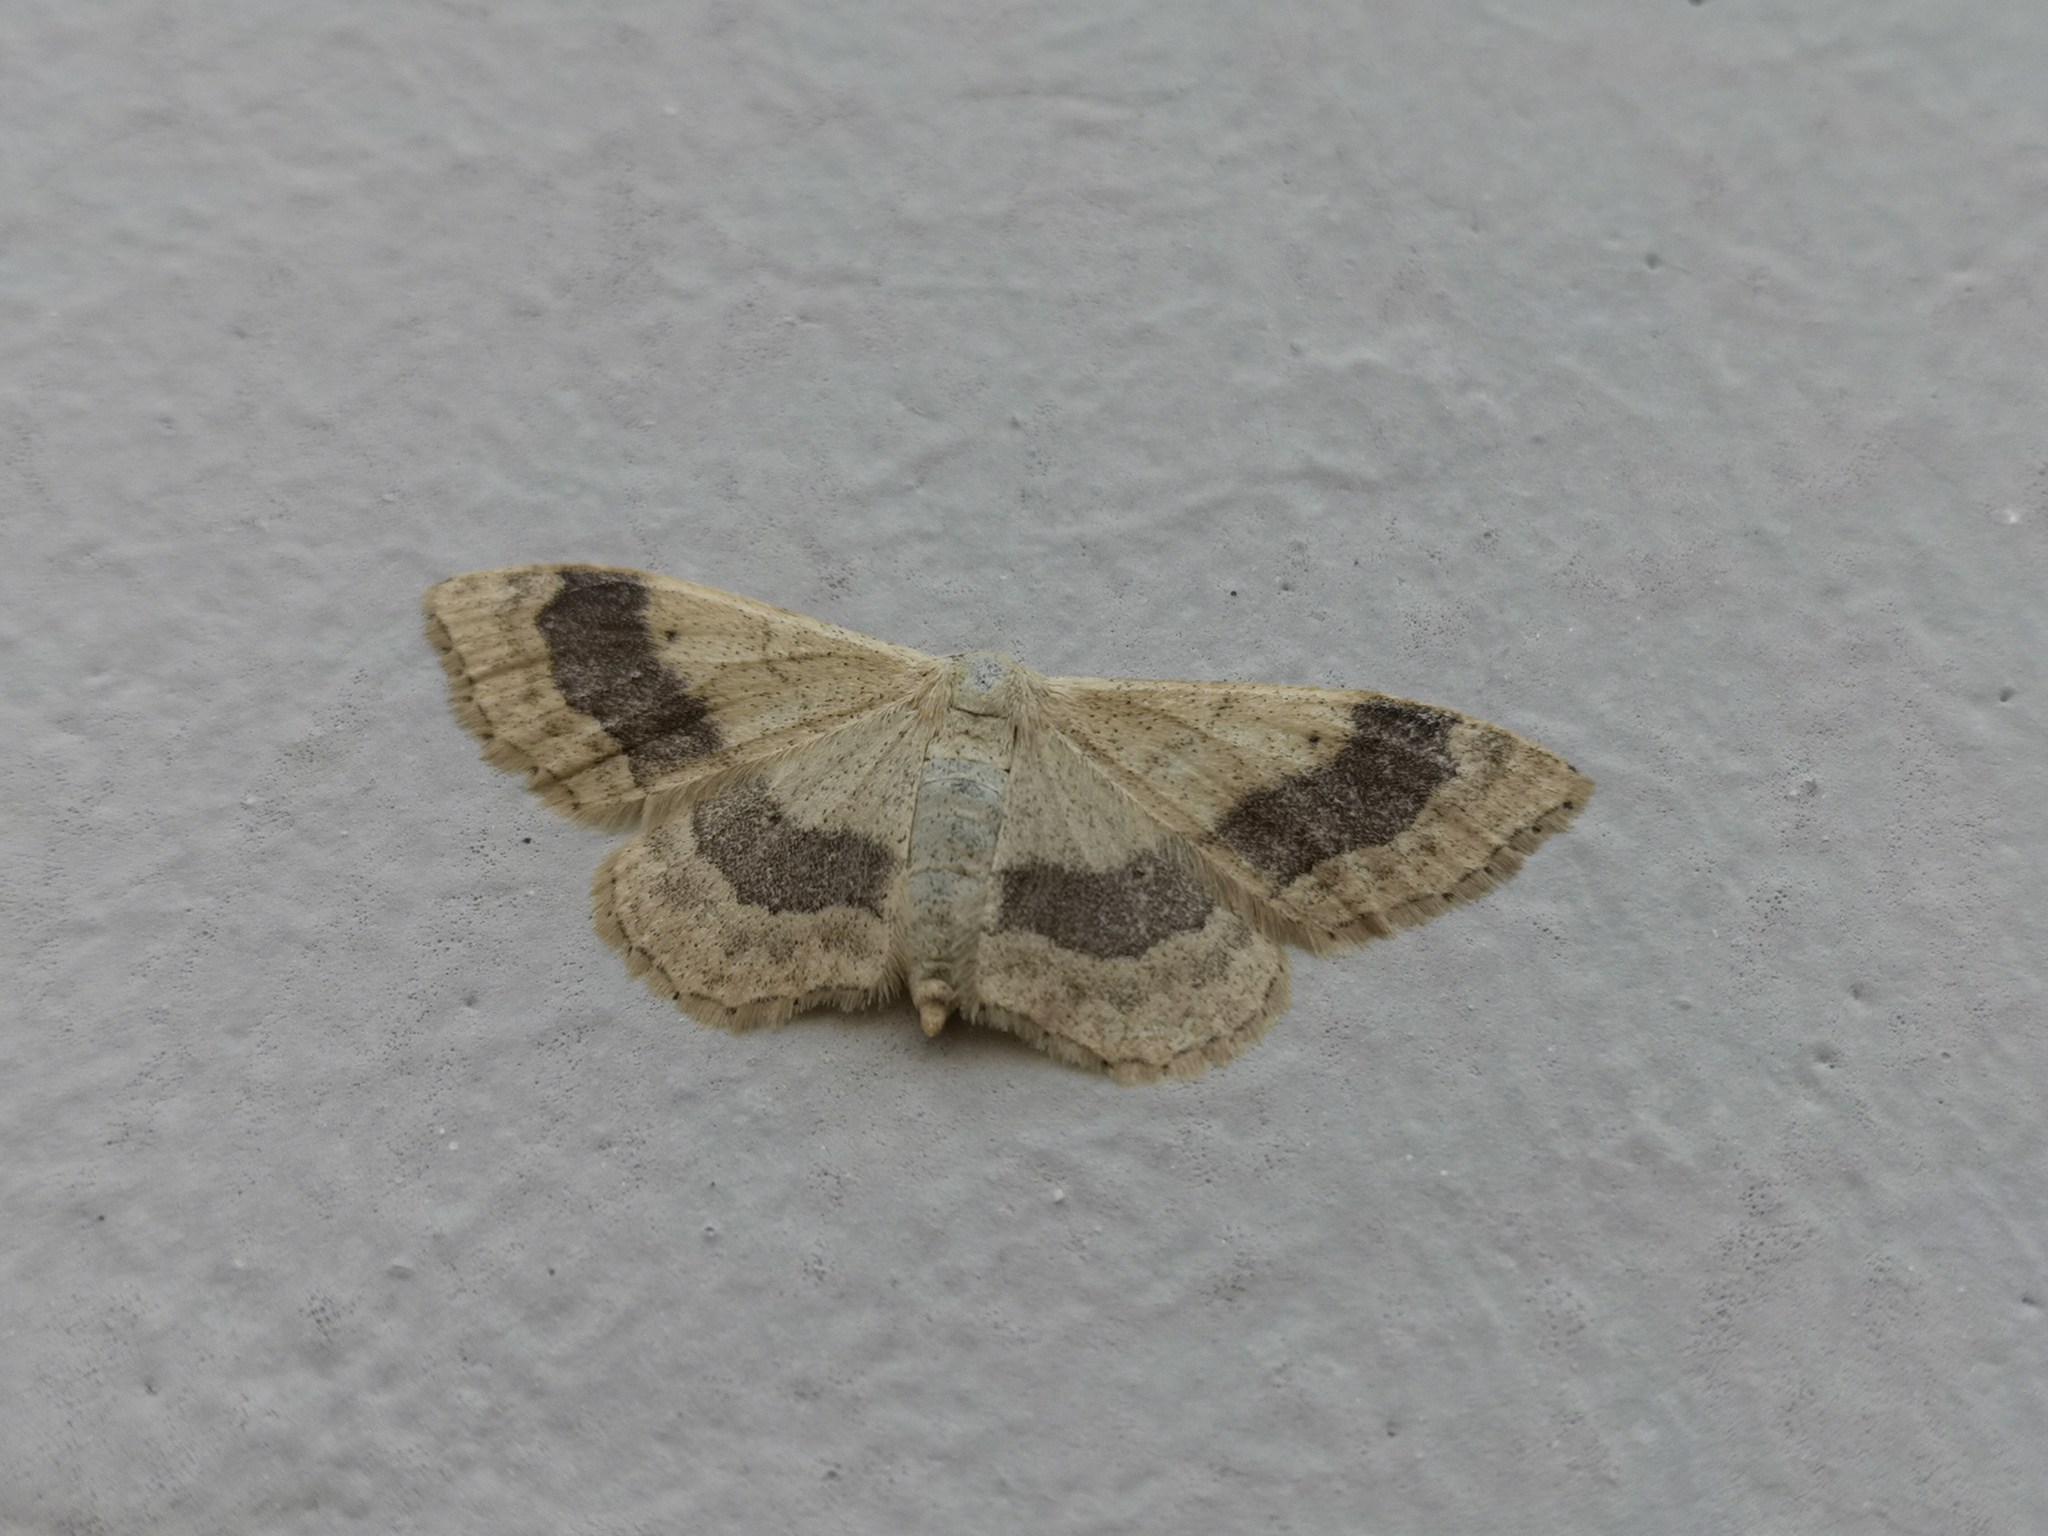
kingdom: Animalia
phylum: Arthropoda
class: Insecta
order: Lepidoptera
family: Geometridae
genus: Idaea
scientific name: Idaea aversata
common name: Riband wave
